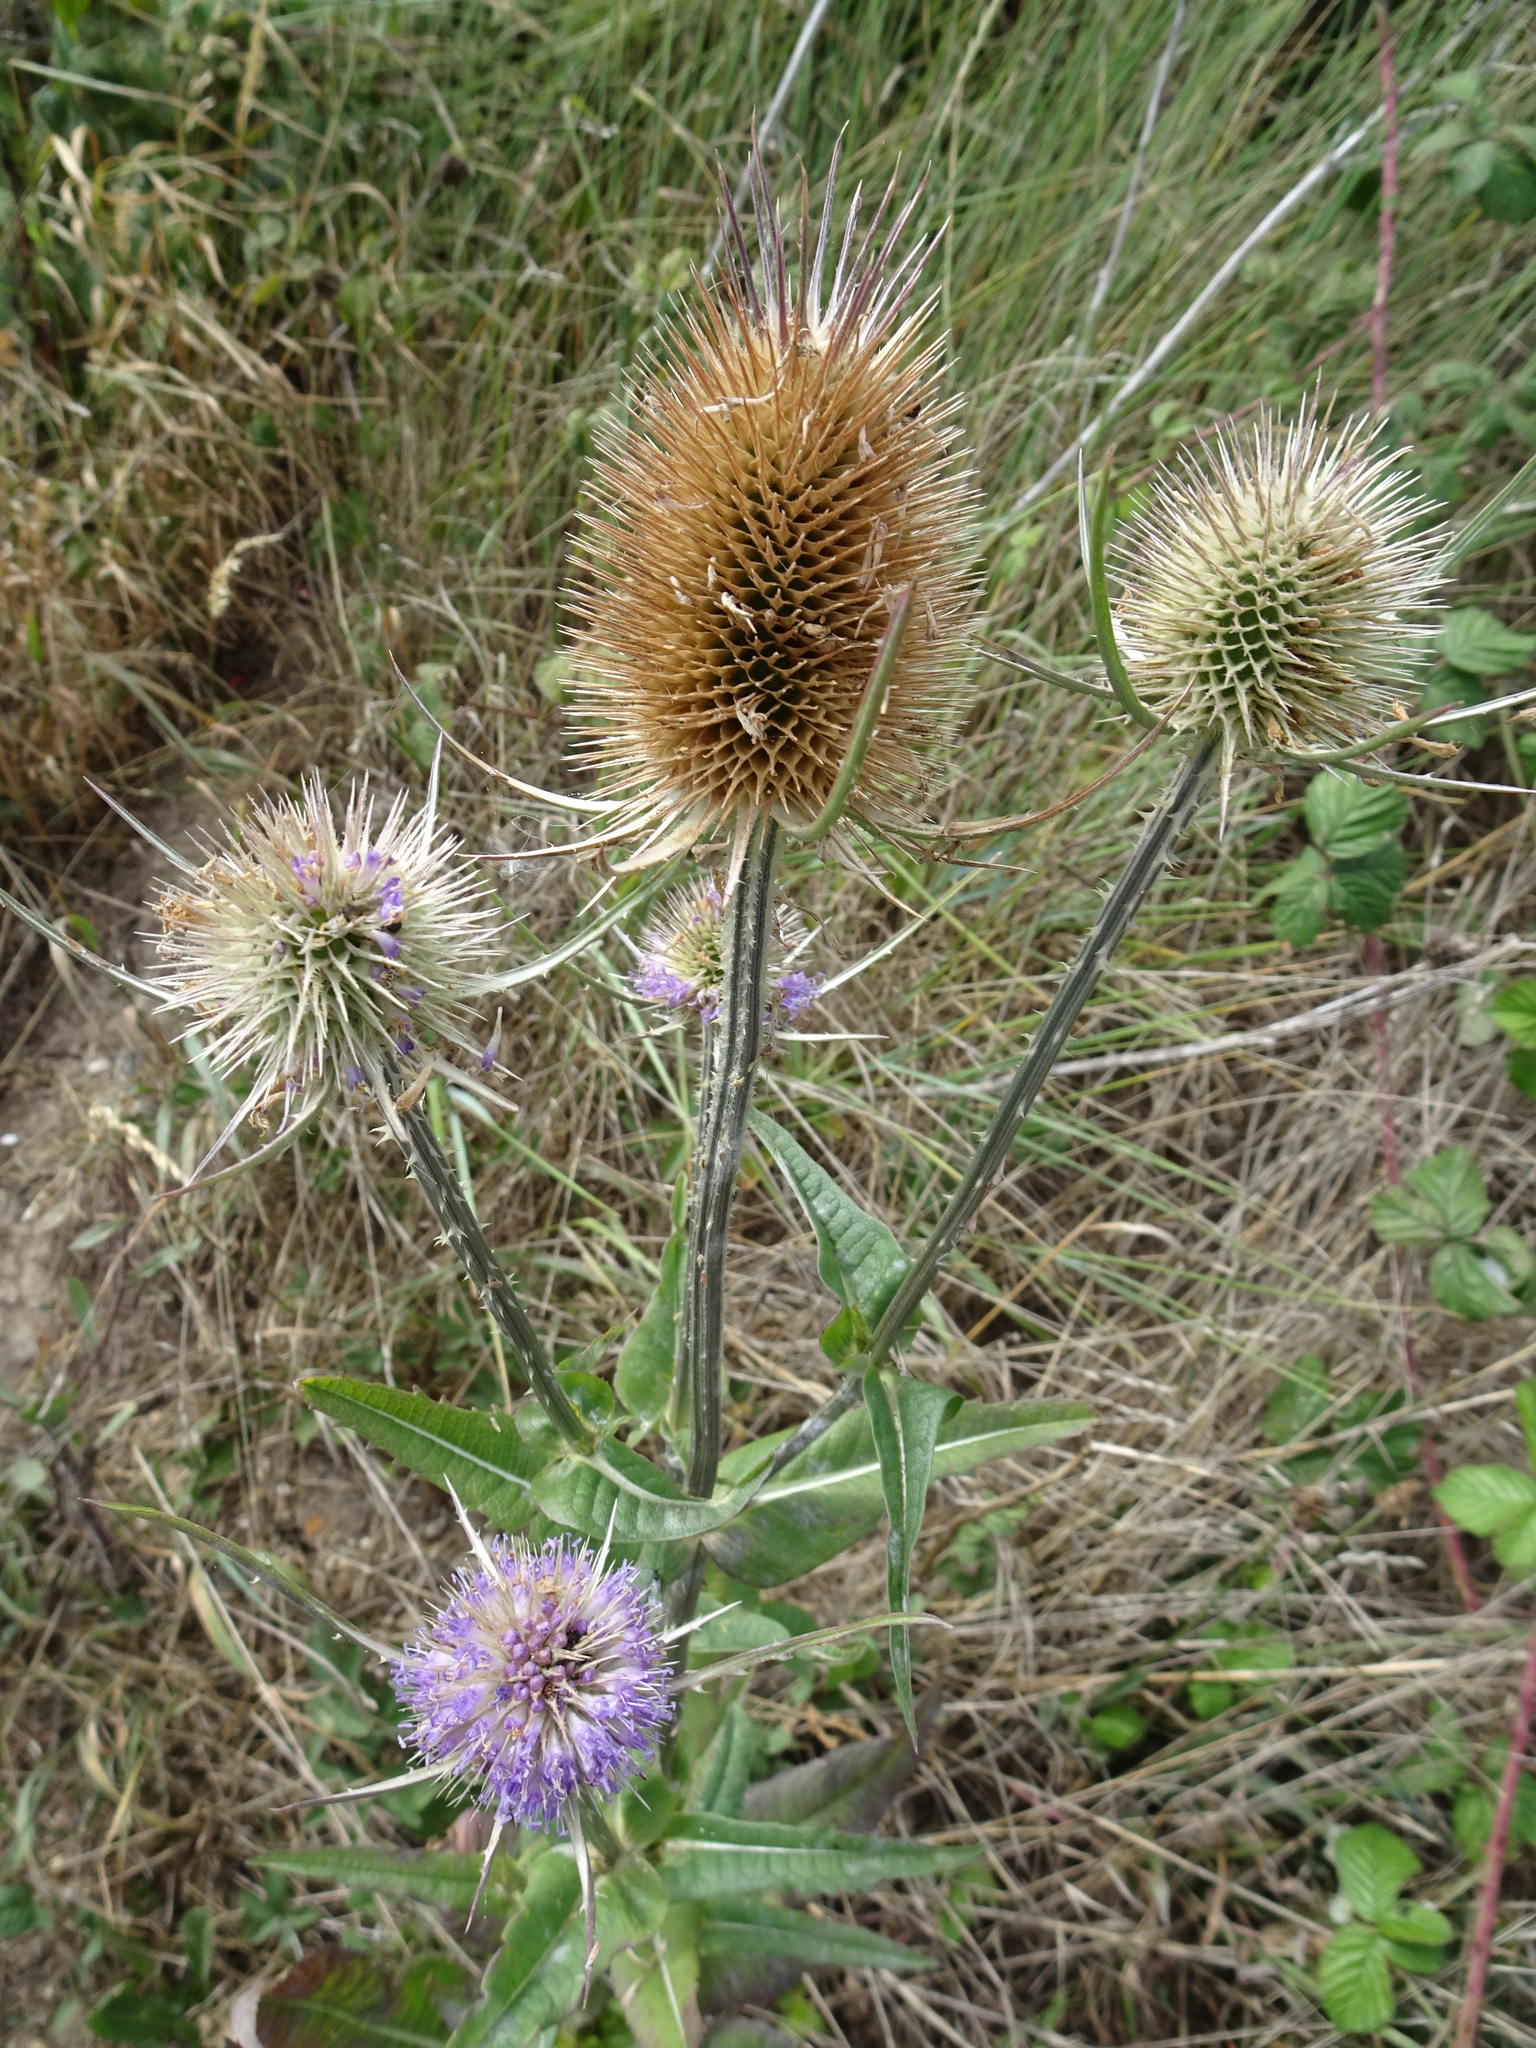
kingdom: Plantae
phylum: Tracheophyta
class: Magnoliopsida
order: Dipsacales
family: Caprifoliaceae
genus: Dipsacus
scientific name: Dipsacus fullonum
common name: Teasel
